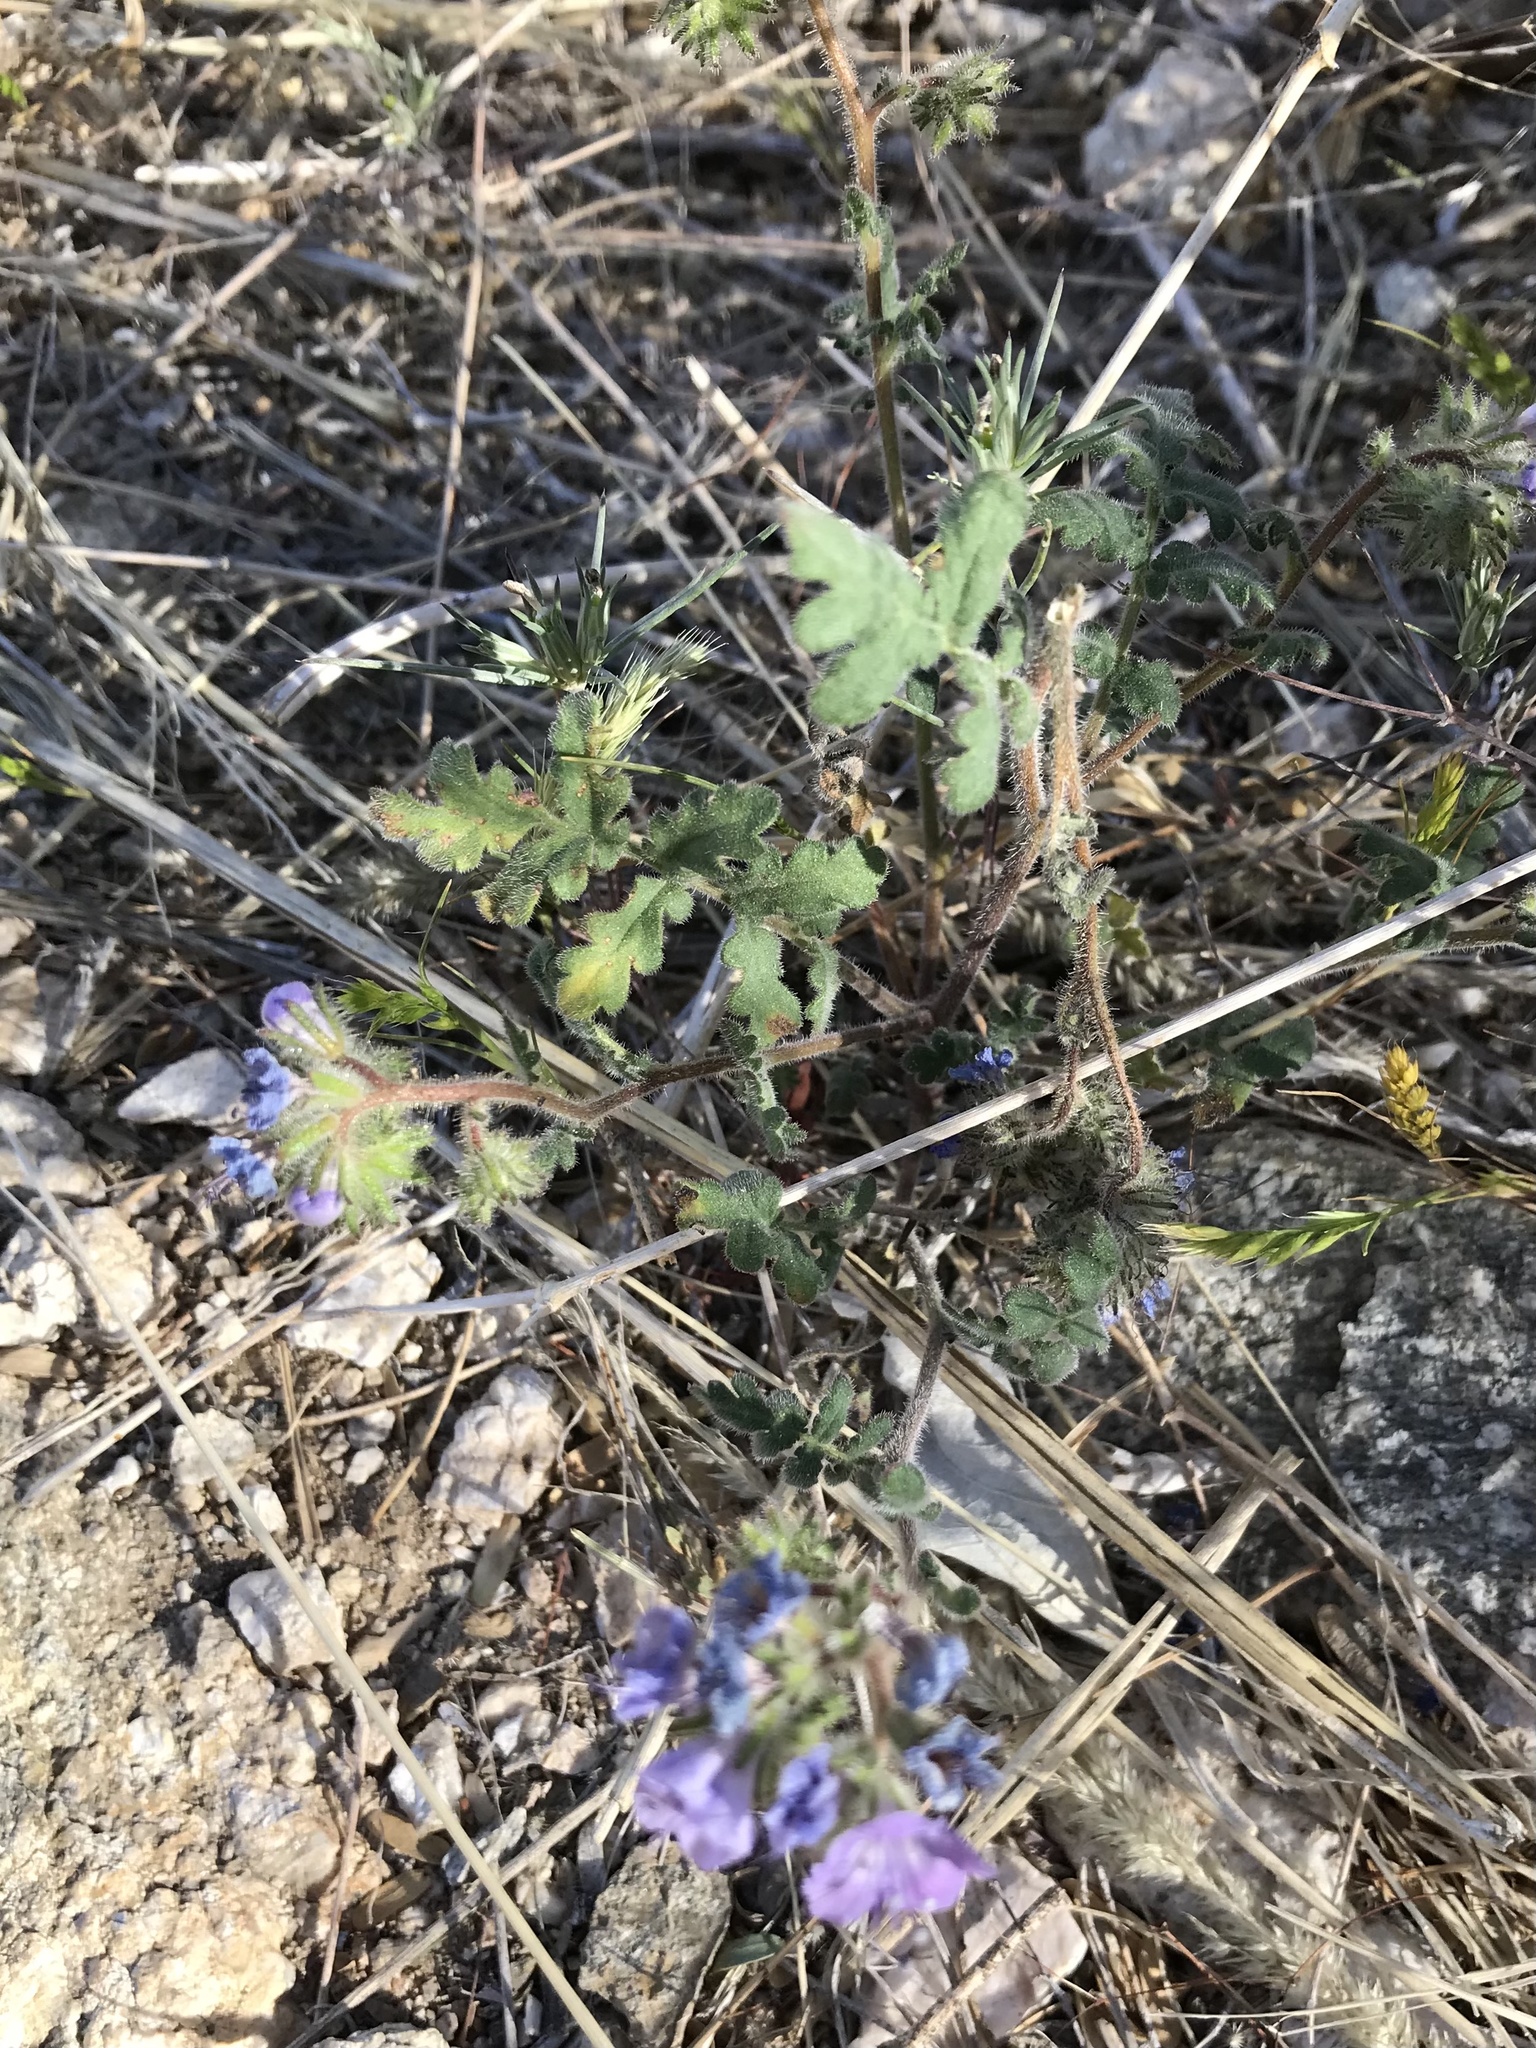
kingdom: Plantae
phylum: Tracheophyta
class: Magnoliopsida
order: Boraginales
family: Hydrophyllaceae
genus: Phacelia
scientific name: Phacelia distans
